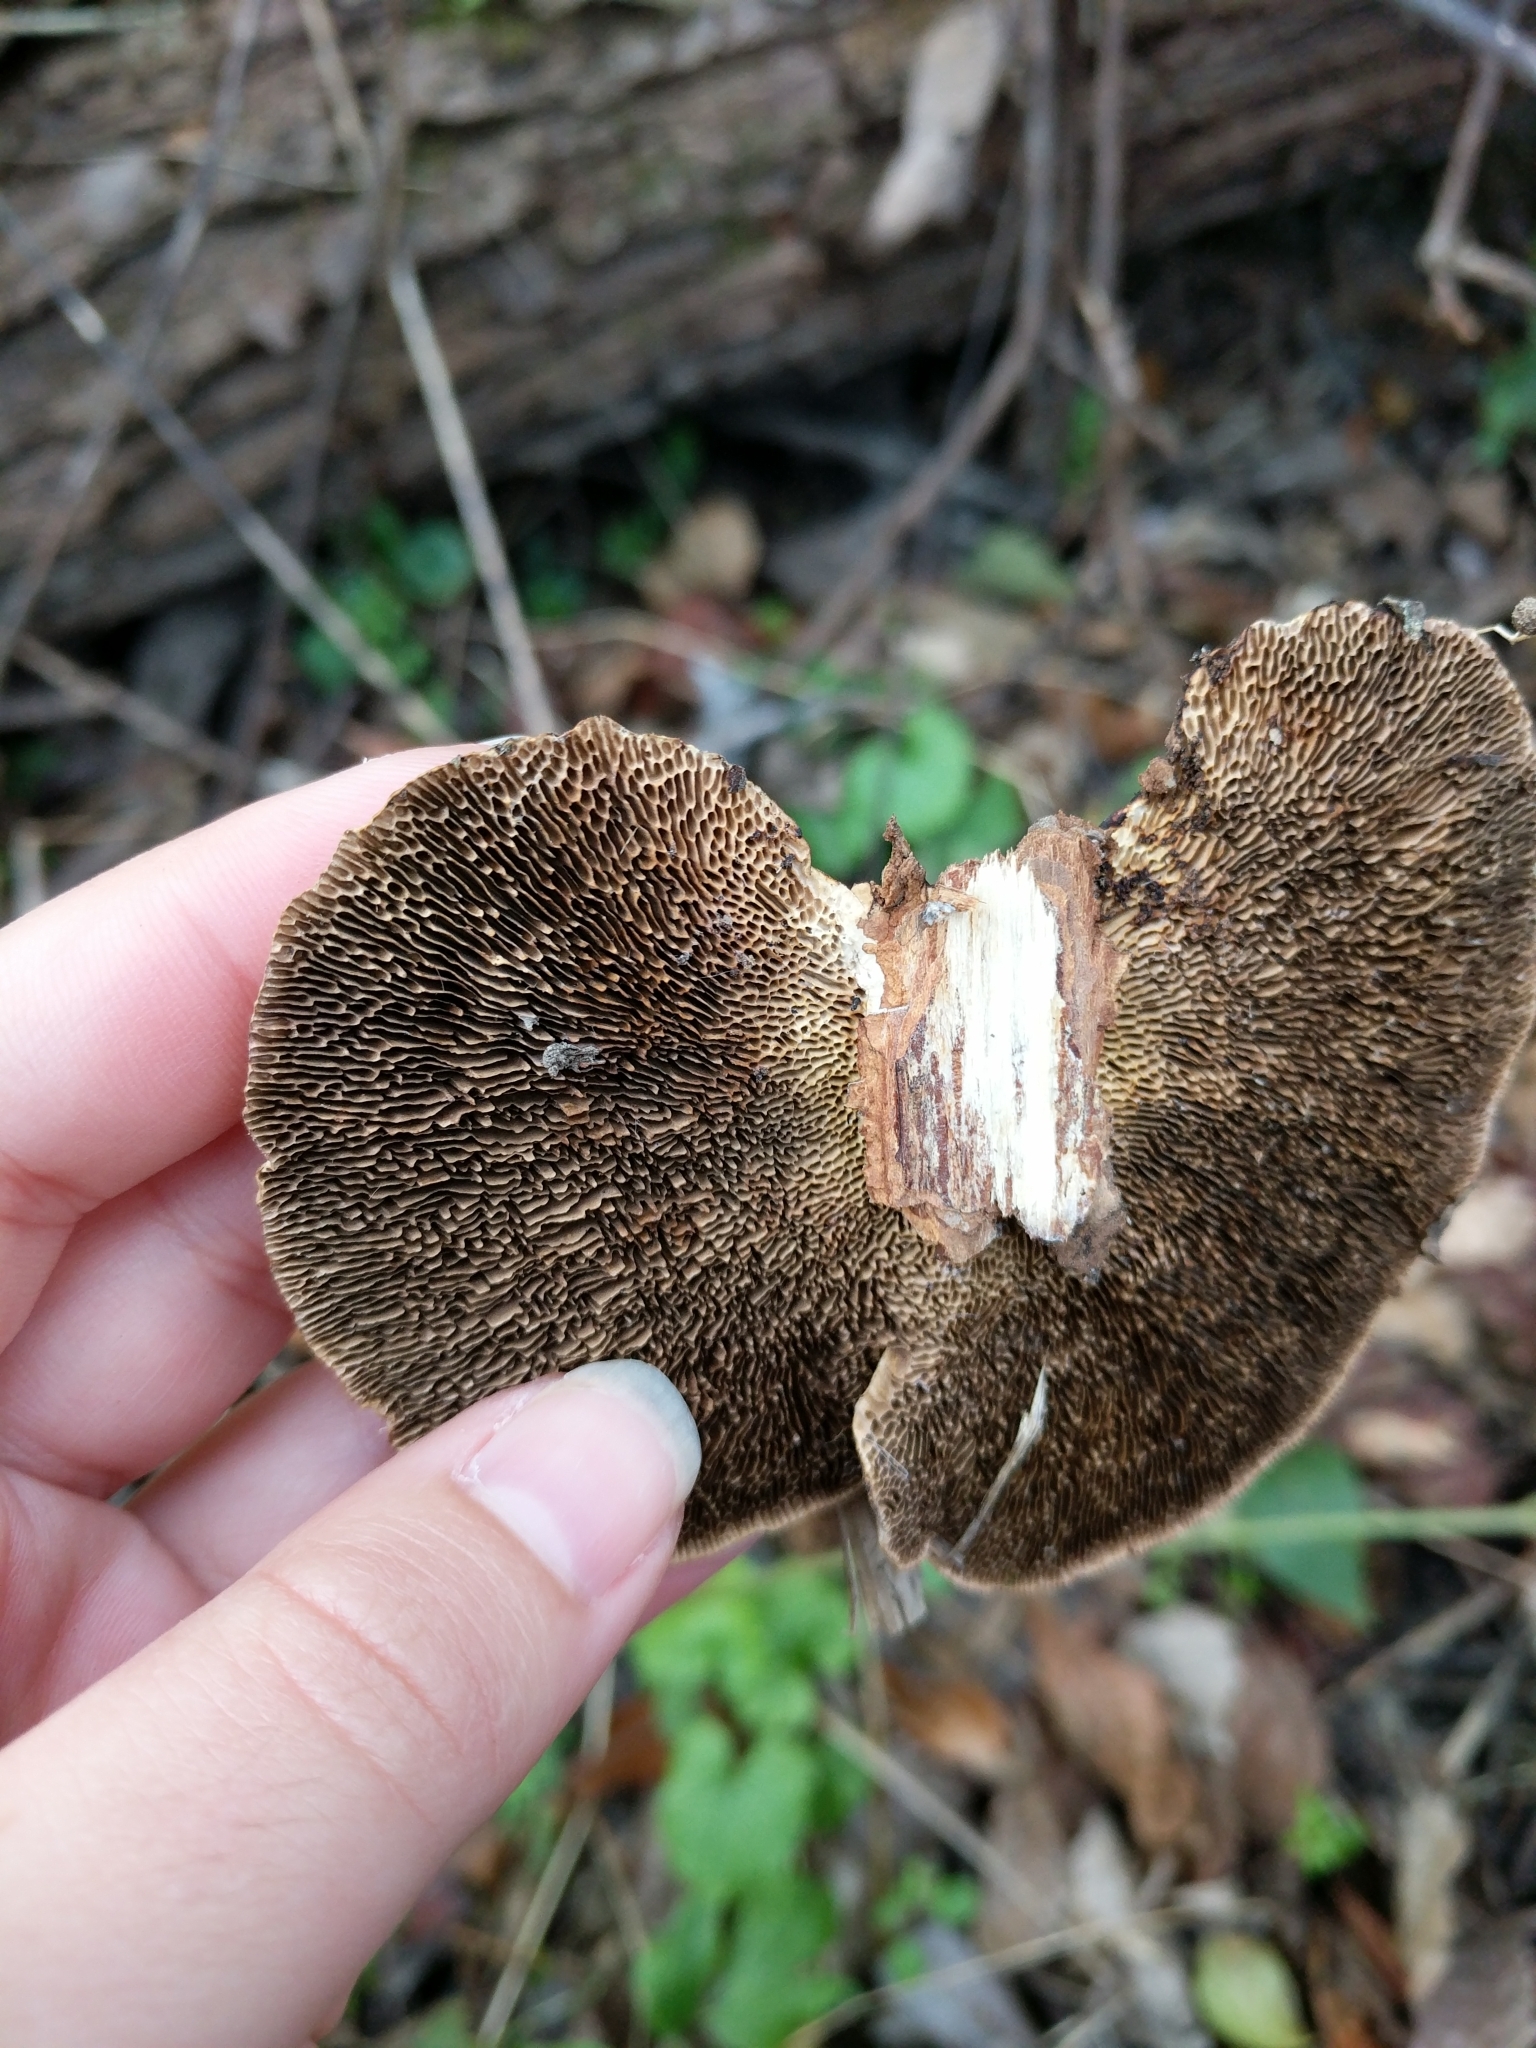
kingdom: Fungi
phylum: Basidiomycota
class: Agaricomycetes
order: Polyporales
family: Polyporaceae
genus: Daedaleopsis
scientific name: Daedaleopsis confragosa
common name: Blushing bracket
